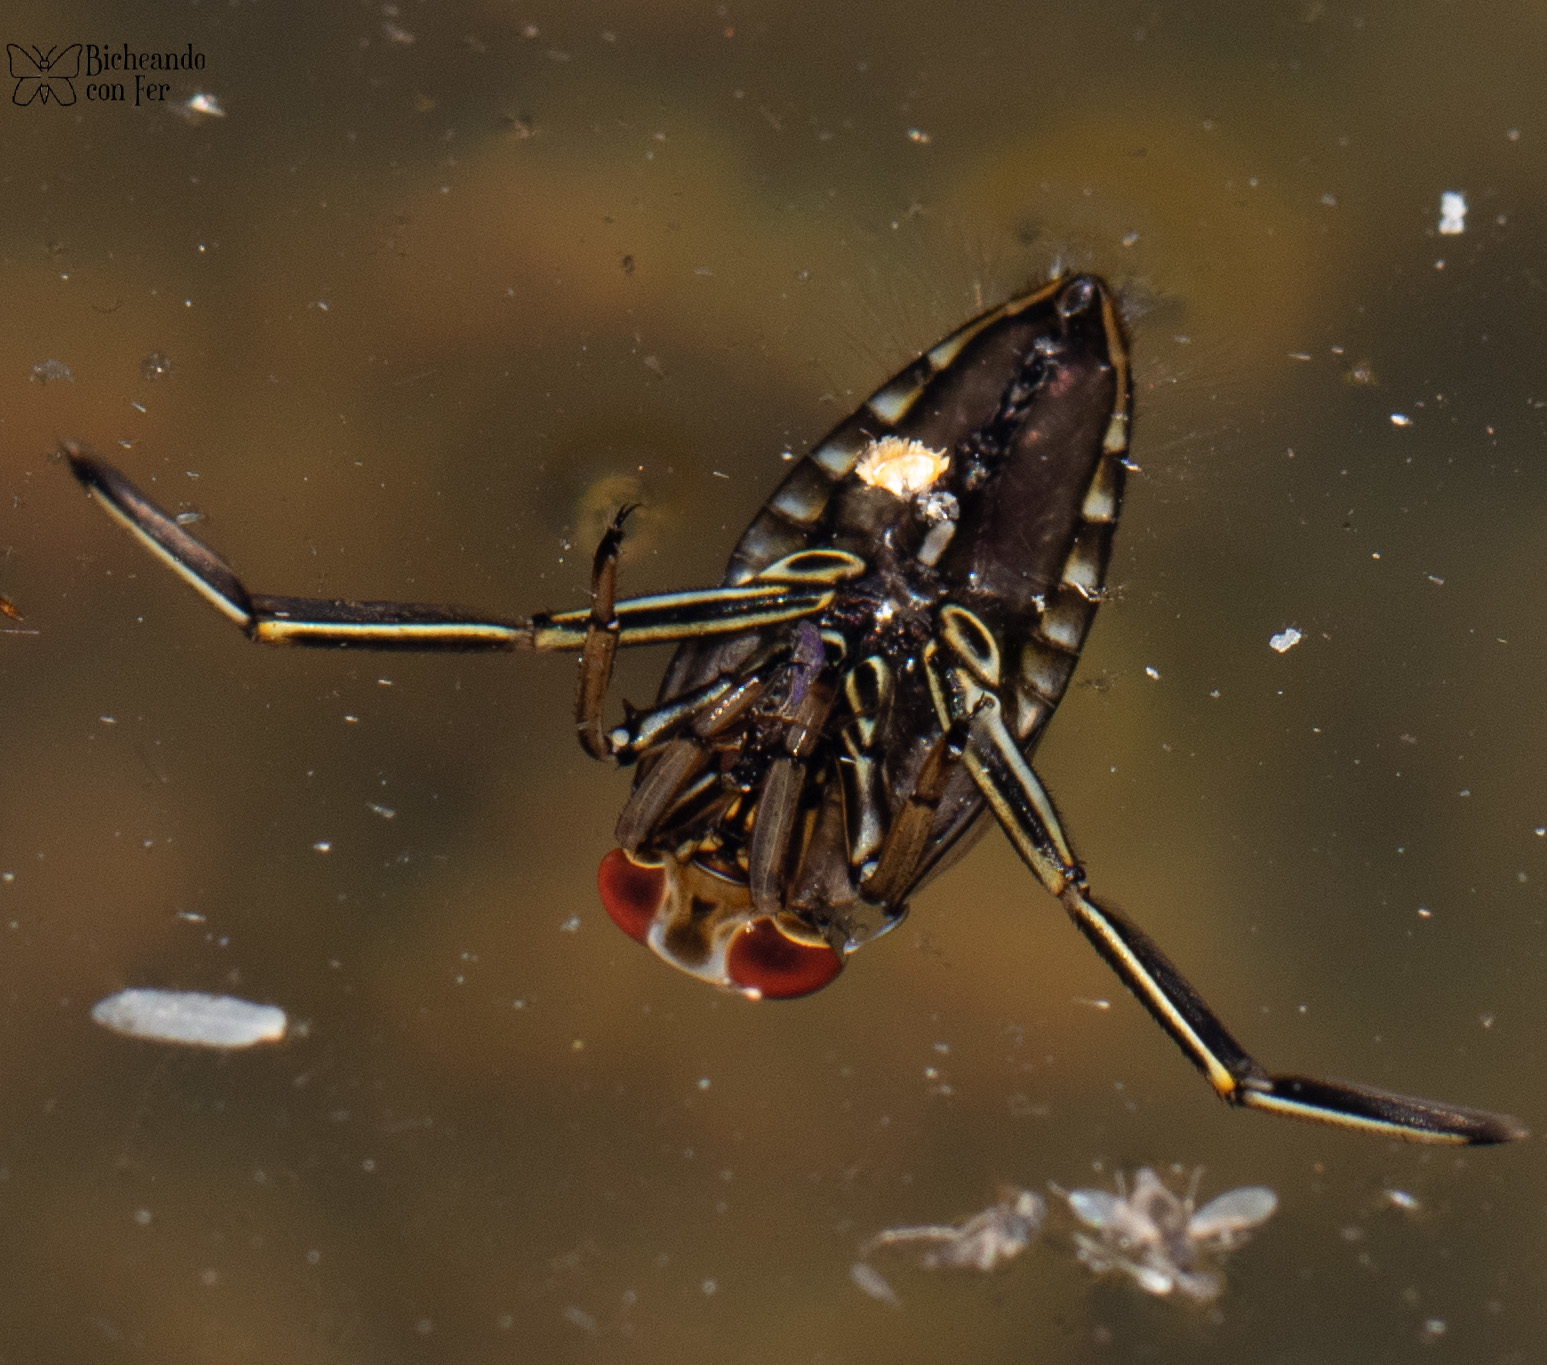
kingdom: Animalia
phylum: Arthropoda
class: Insecta
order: Hemiptera
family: Notonectidae
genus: Notonecta
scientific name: Notonecta
